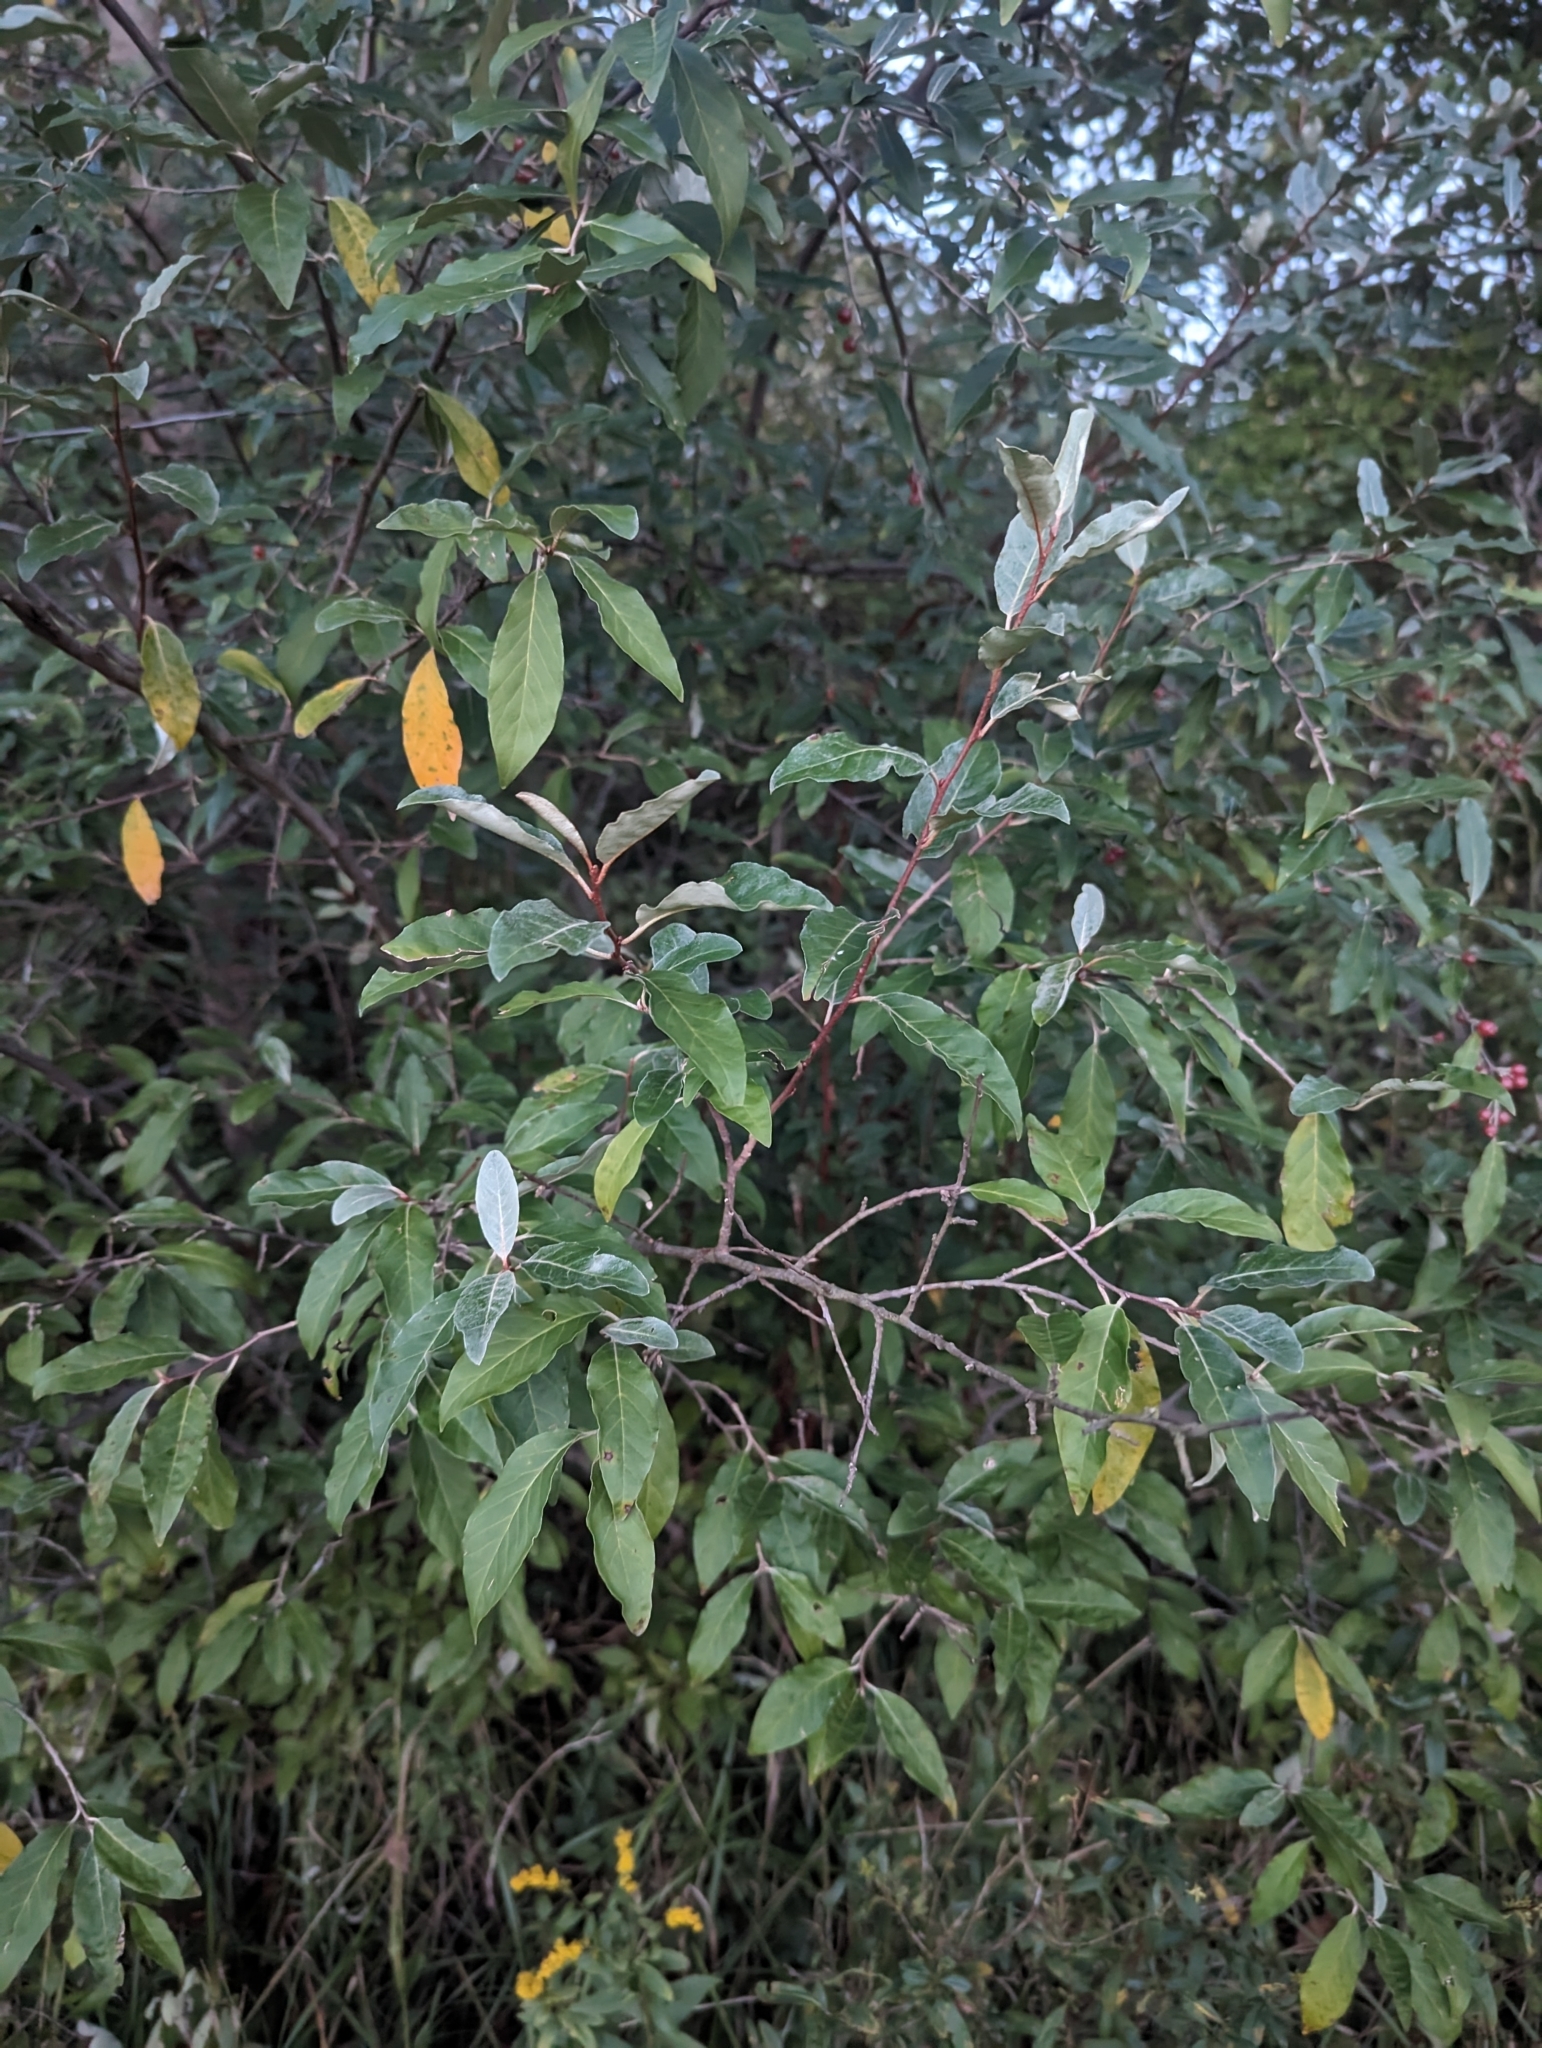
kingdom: Plantae
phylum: Tracheophyta
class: Magnoliopsida
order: Rosales
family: Elaeagnaceae
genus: Elaeagnus
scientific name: Elaeagnus umbellata
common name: Autumn olive
